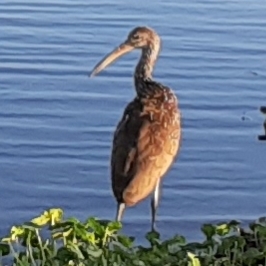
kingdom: Animalia
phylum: Chordata
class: Aves
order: Gruiformes
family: Aramidae
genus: Aramus
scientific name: Aramus guarauna
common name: Limpkin
